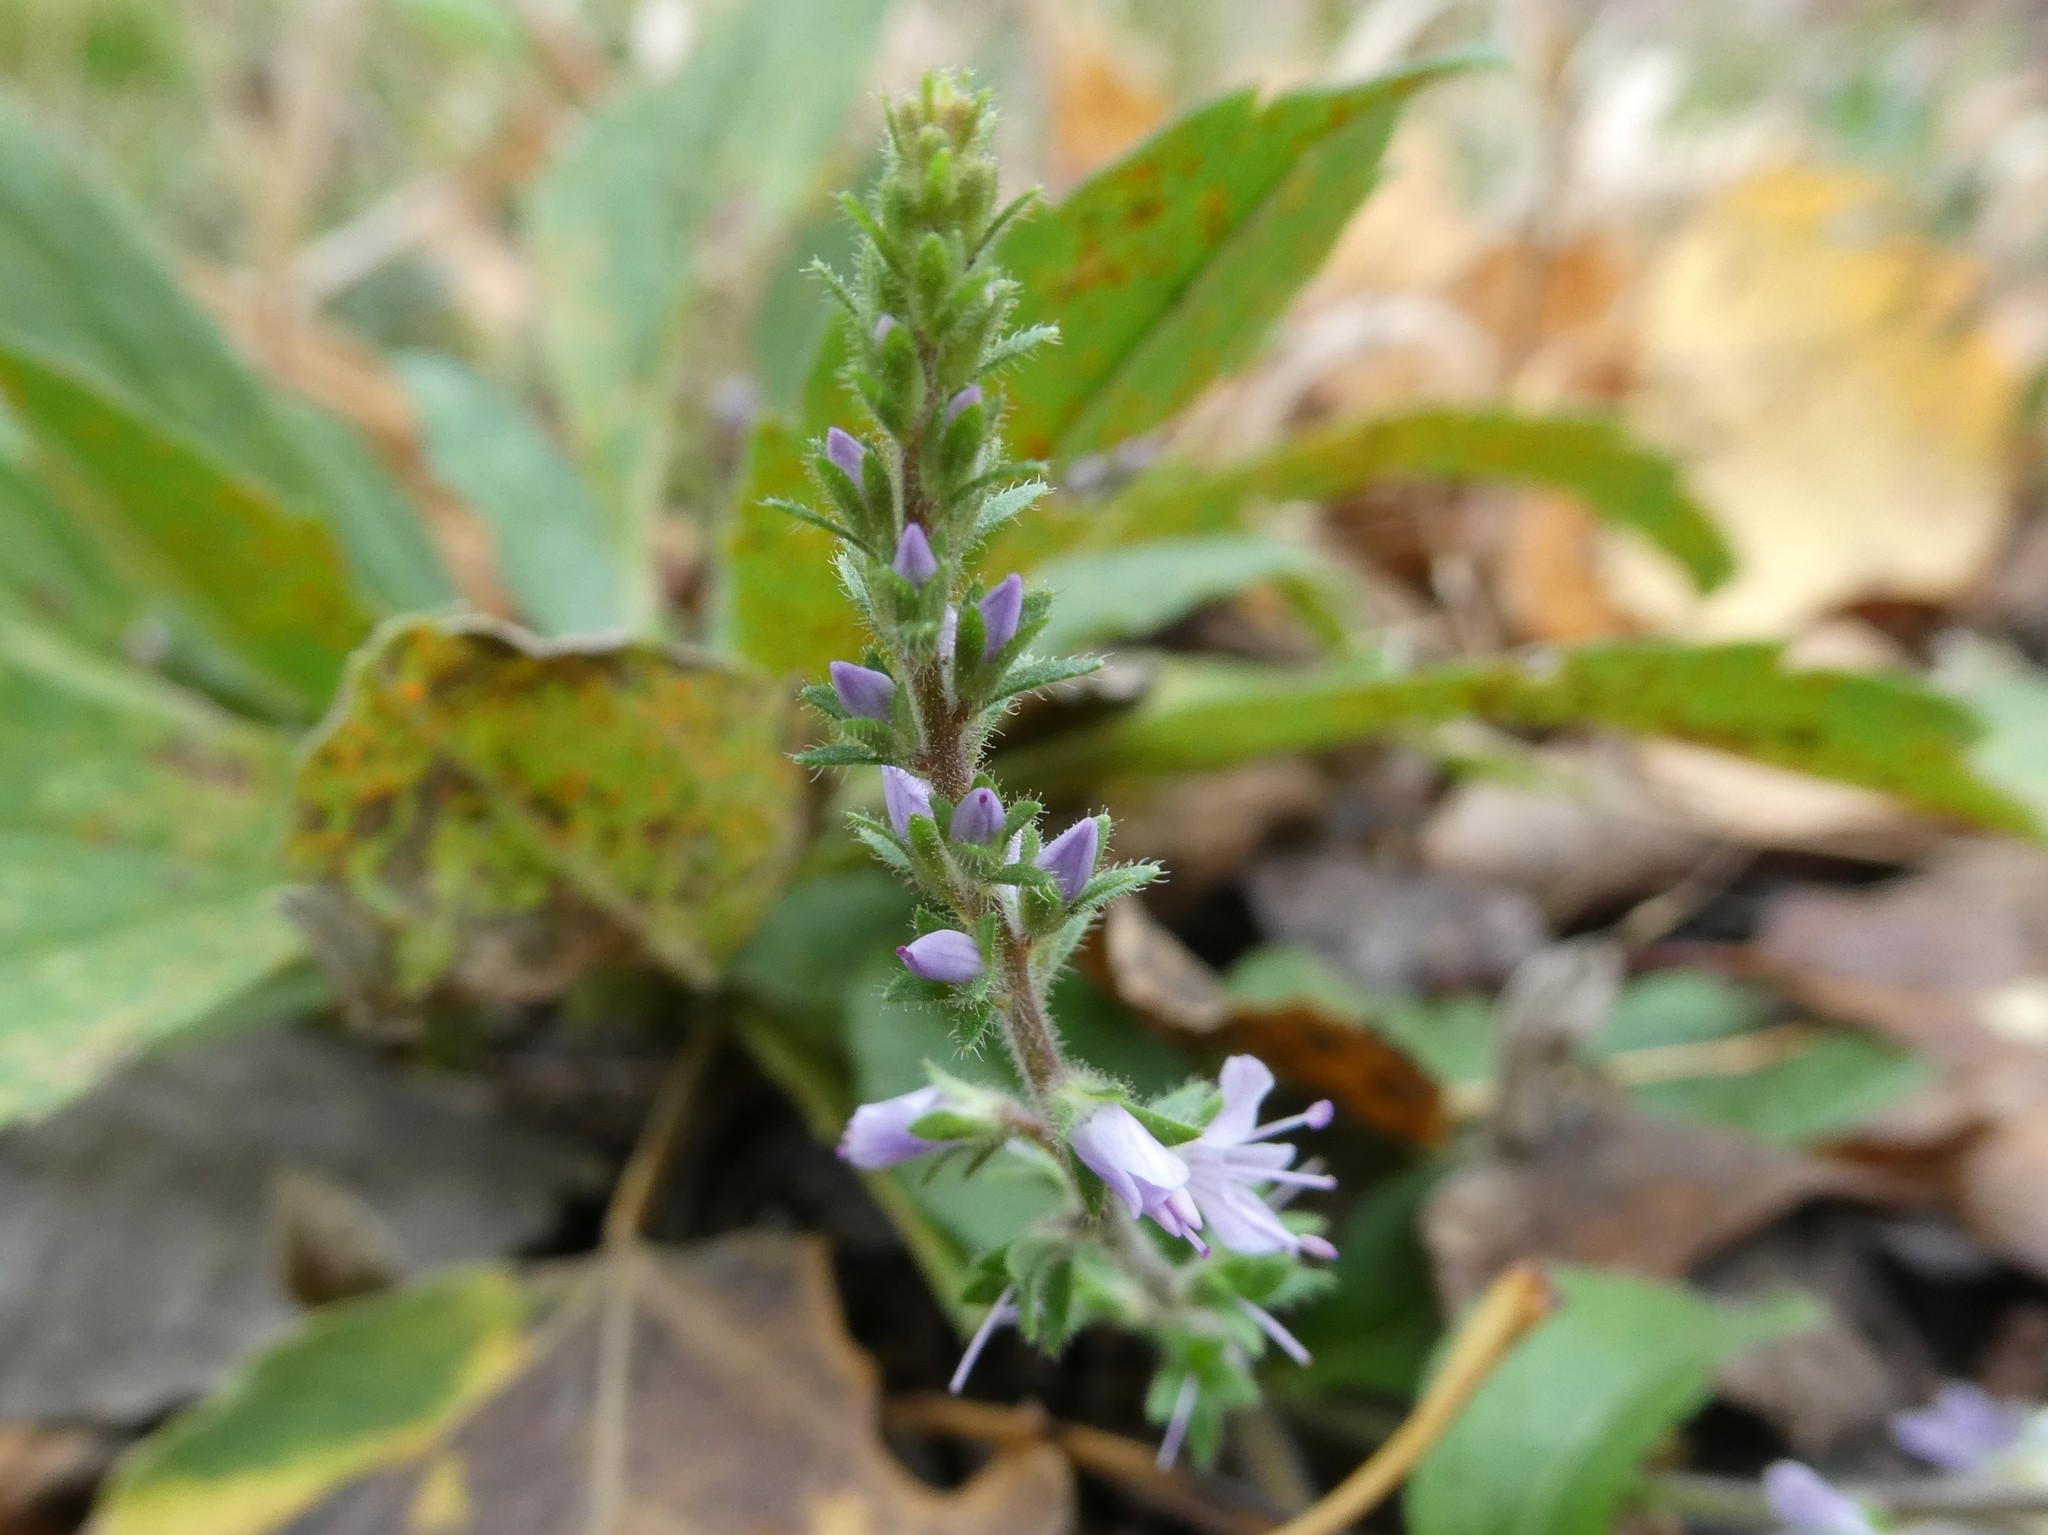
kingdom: Plantae
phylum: Tracheophyta
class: Magnoliopsida
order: Lamiales
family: Plantaginaceae
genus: Veronica
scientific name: Veronica officinalis
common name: Common speedwell
